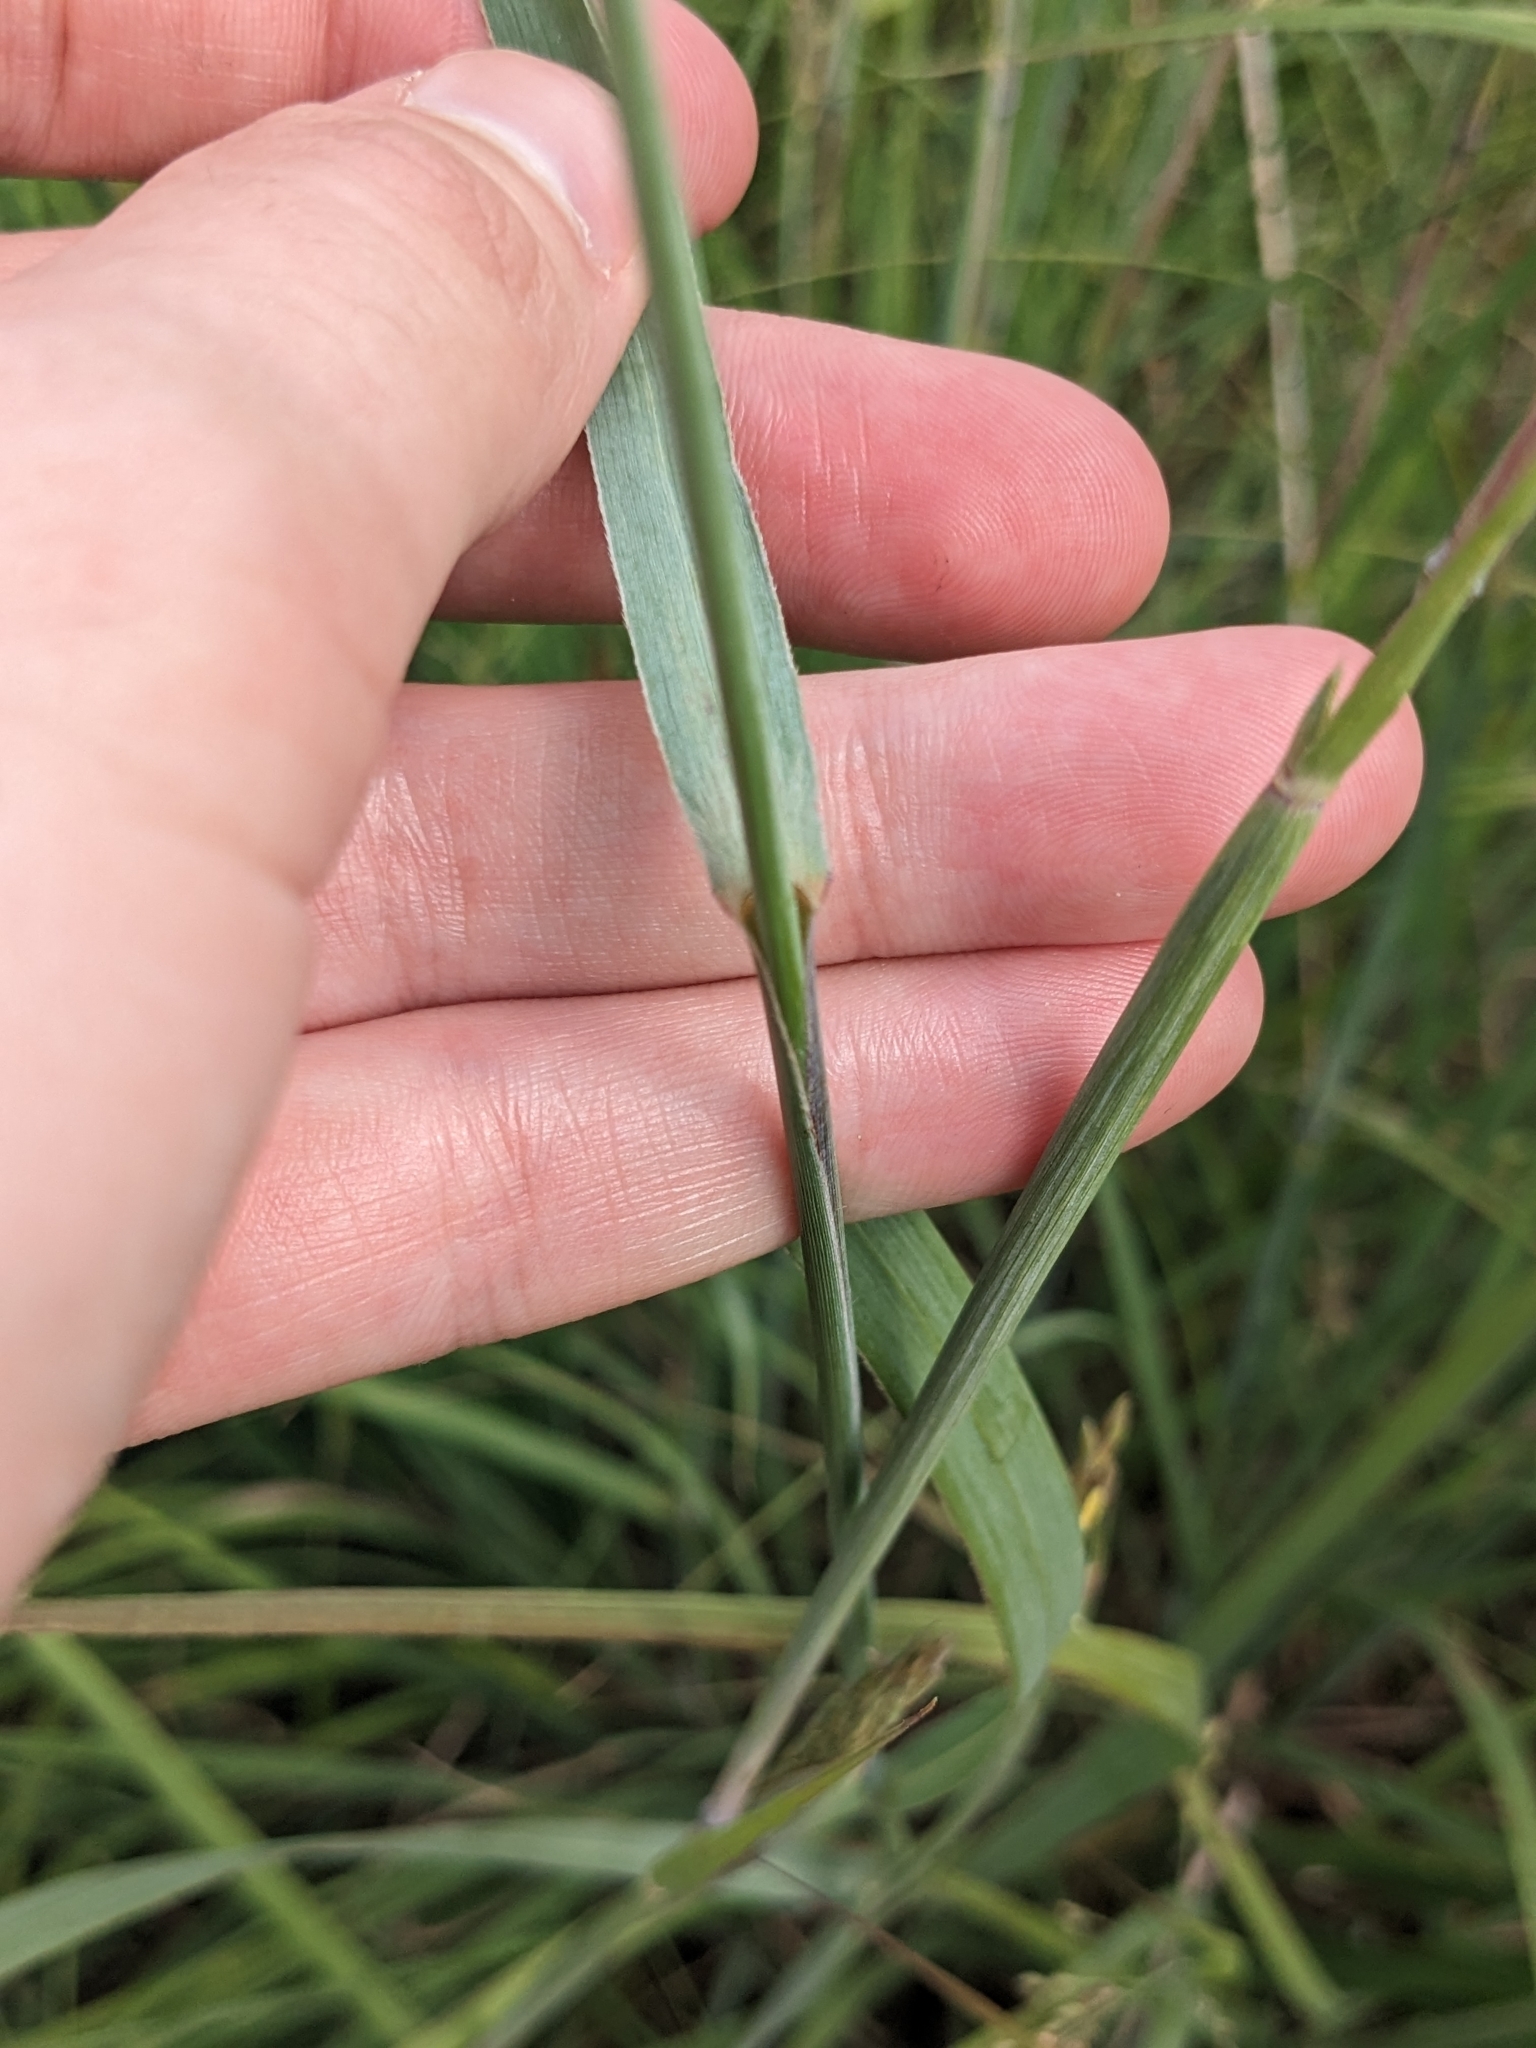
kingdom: Plantae
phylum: Tracheophyta
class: Liliopsida
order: Poales
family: Poaceae
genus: Panicum
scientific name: Panicum virgatum
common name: Switchgrass
